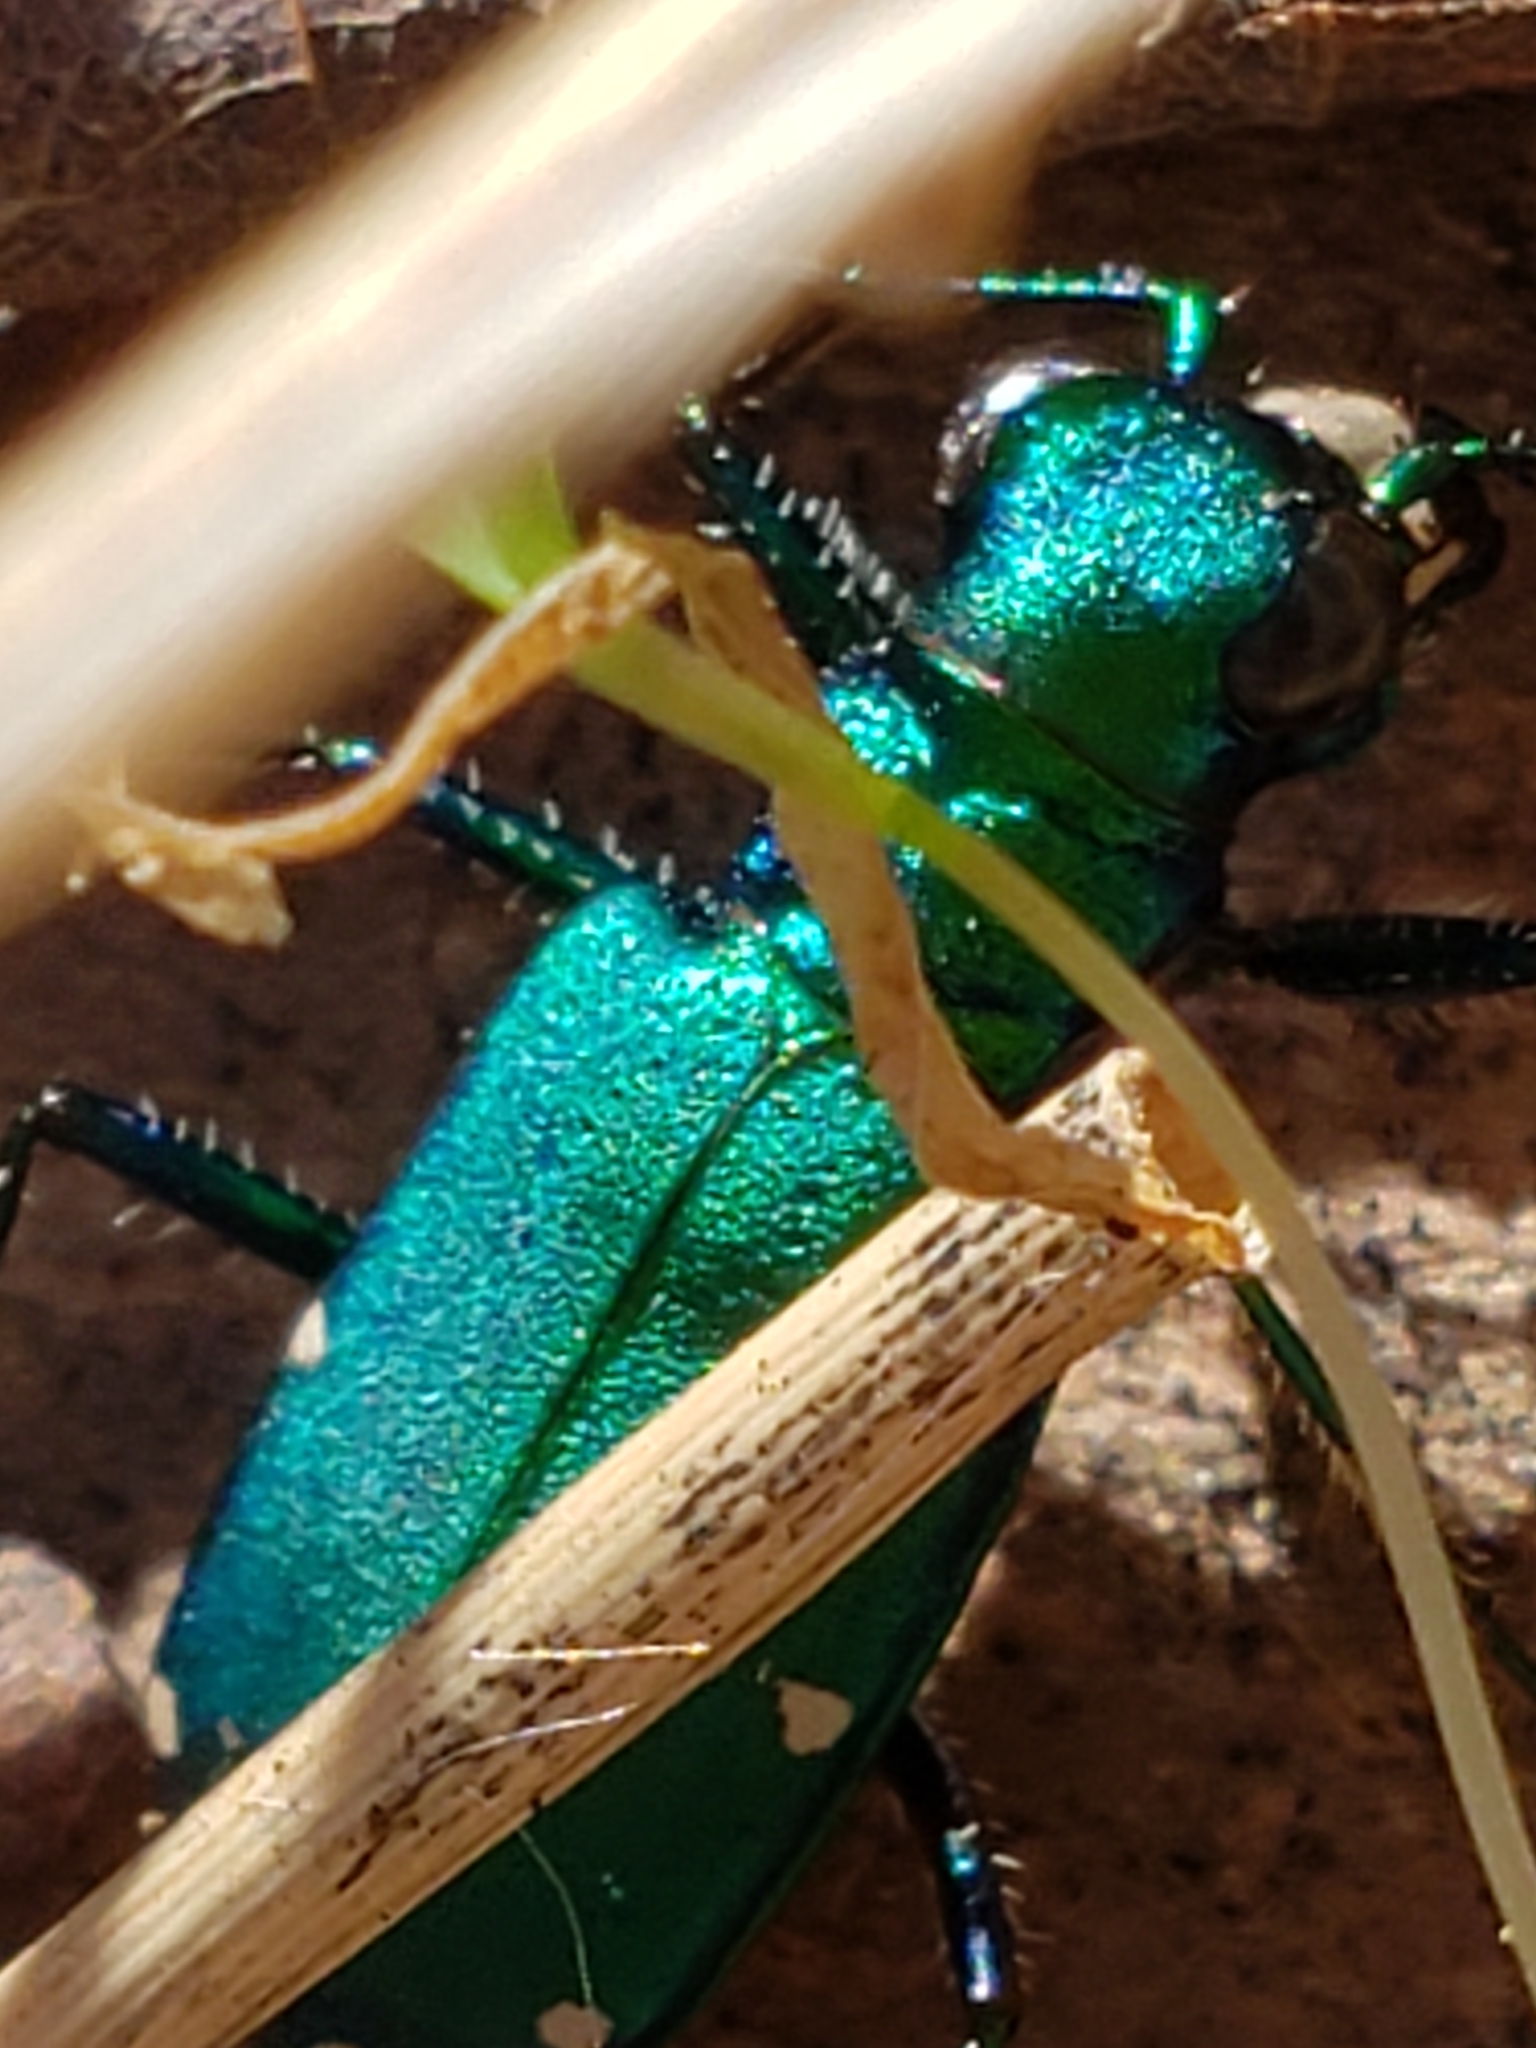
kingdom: Animalia
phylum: Arthropoda
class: Insecta
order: Coleoptera
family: Carabidae
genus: Cicindela
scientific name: Cicindela sexguttata
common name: Six-spotted tiger beetle
